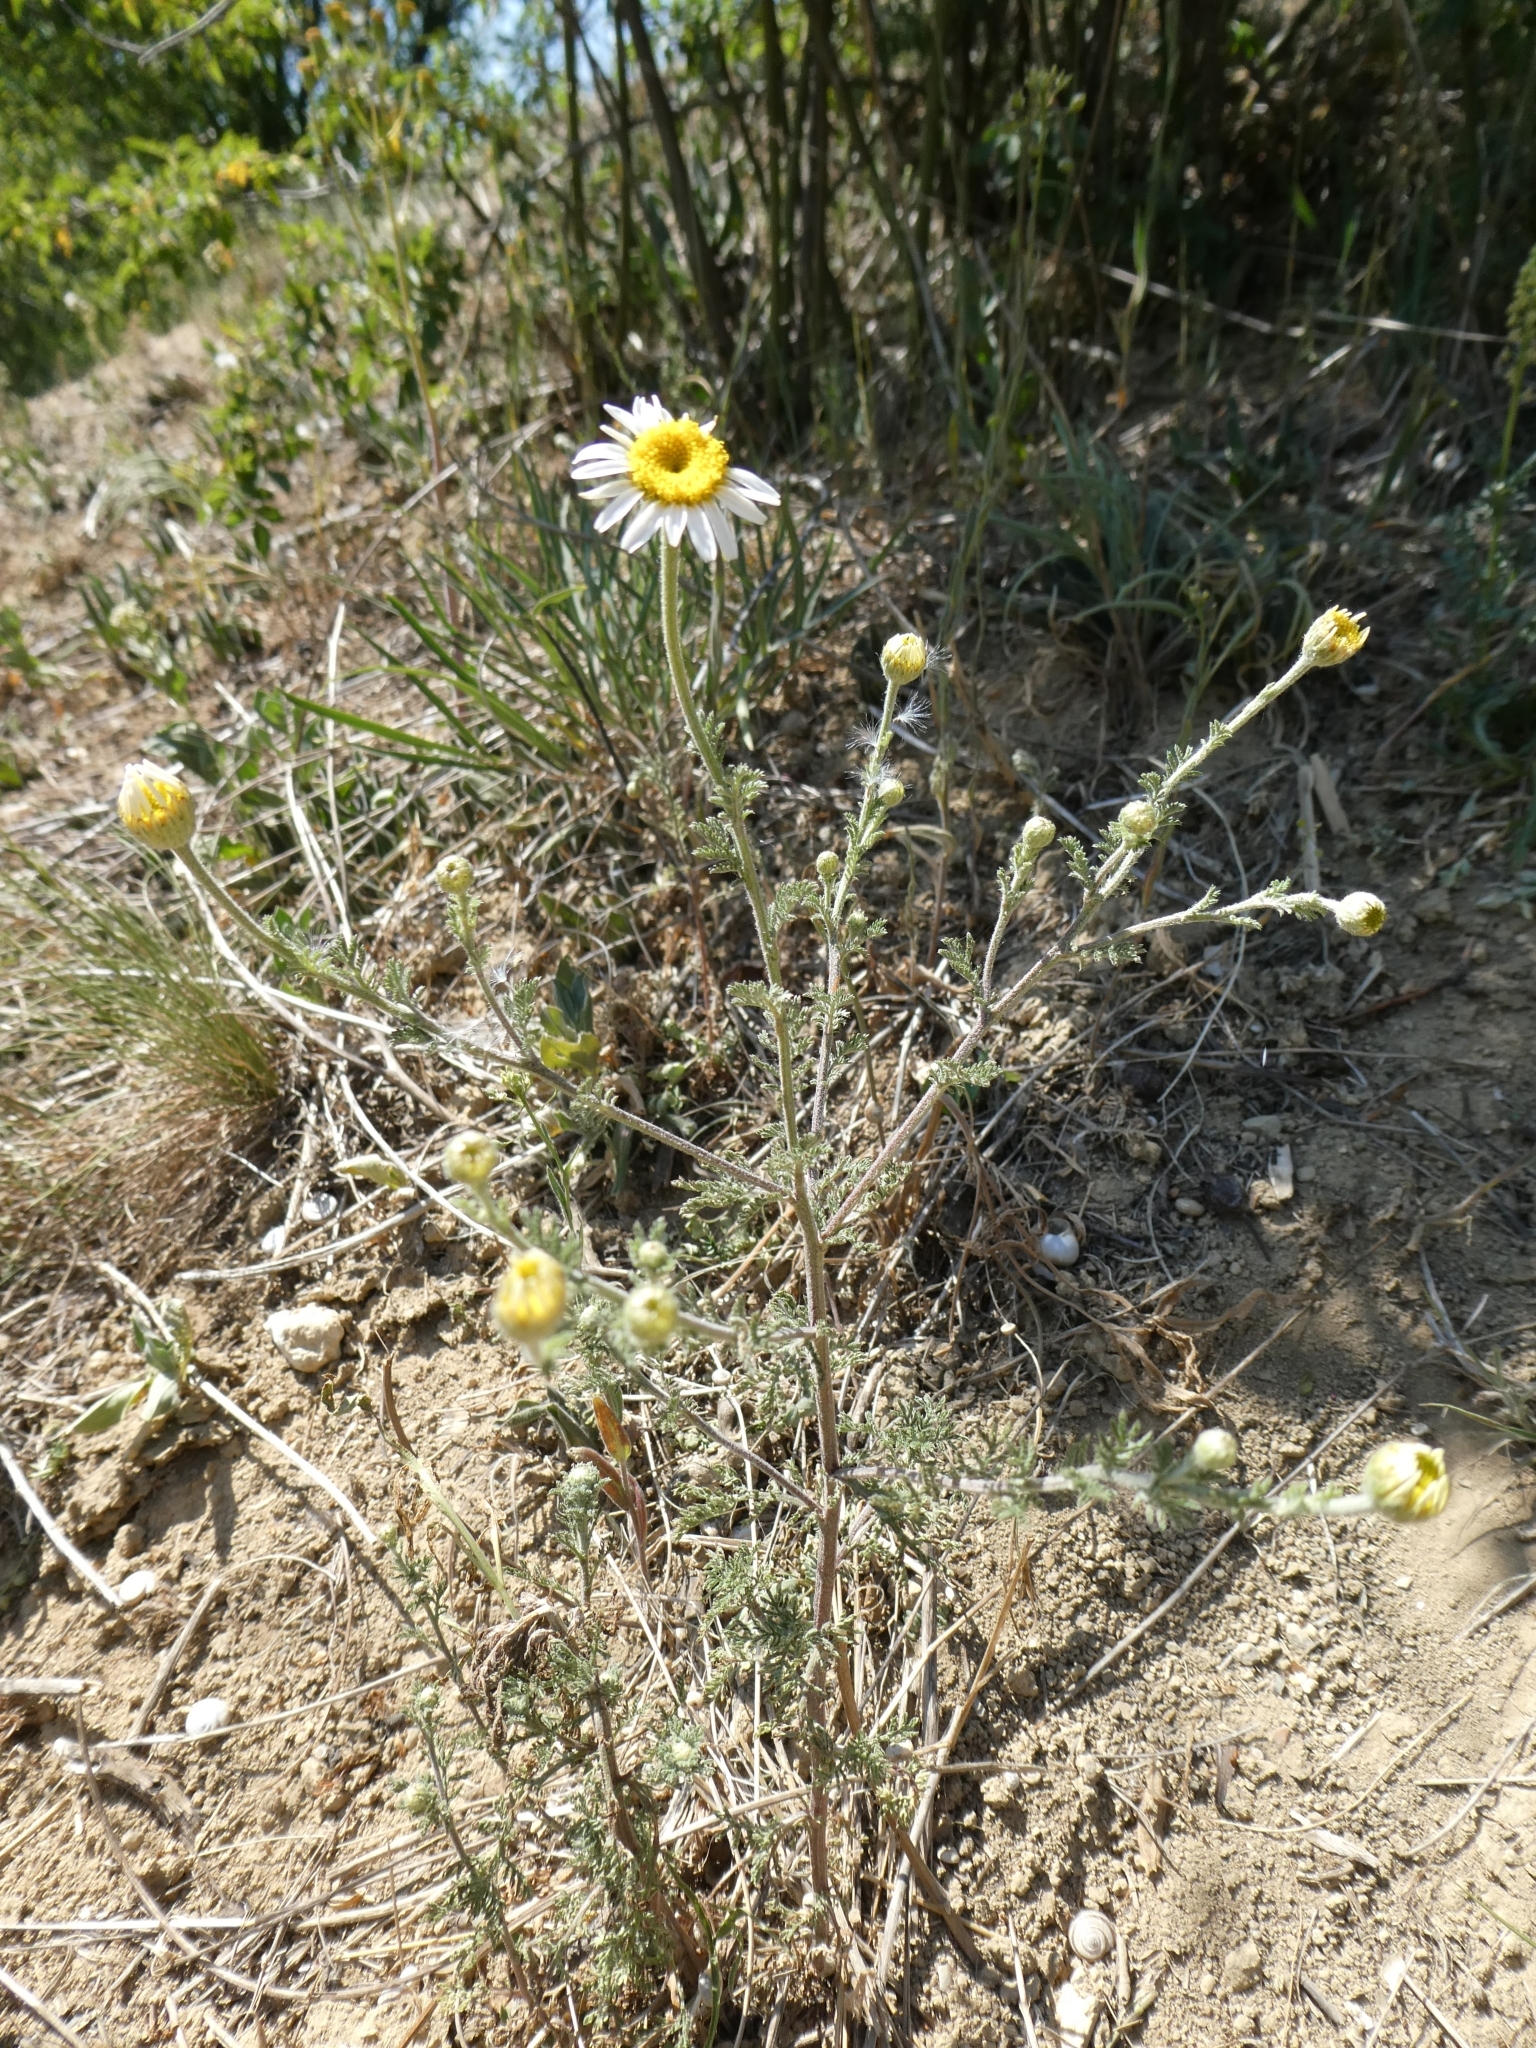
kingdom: Plantae
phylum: Tracheophyta
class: Magnoliopsida
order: Asterales
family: Asteraceae
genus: Cota
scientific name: Cota austriaca
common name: Austrian chamomile
